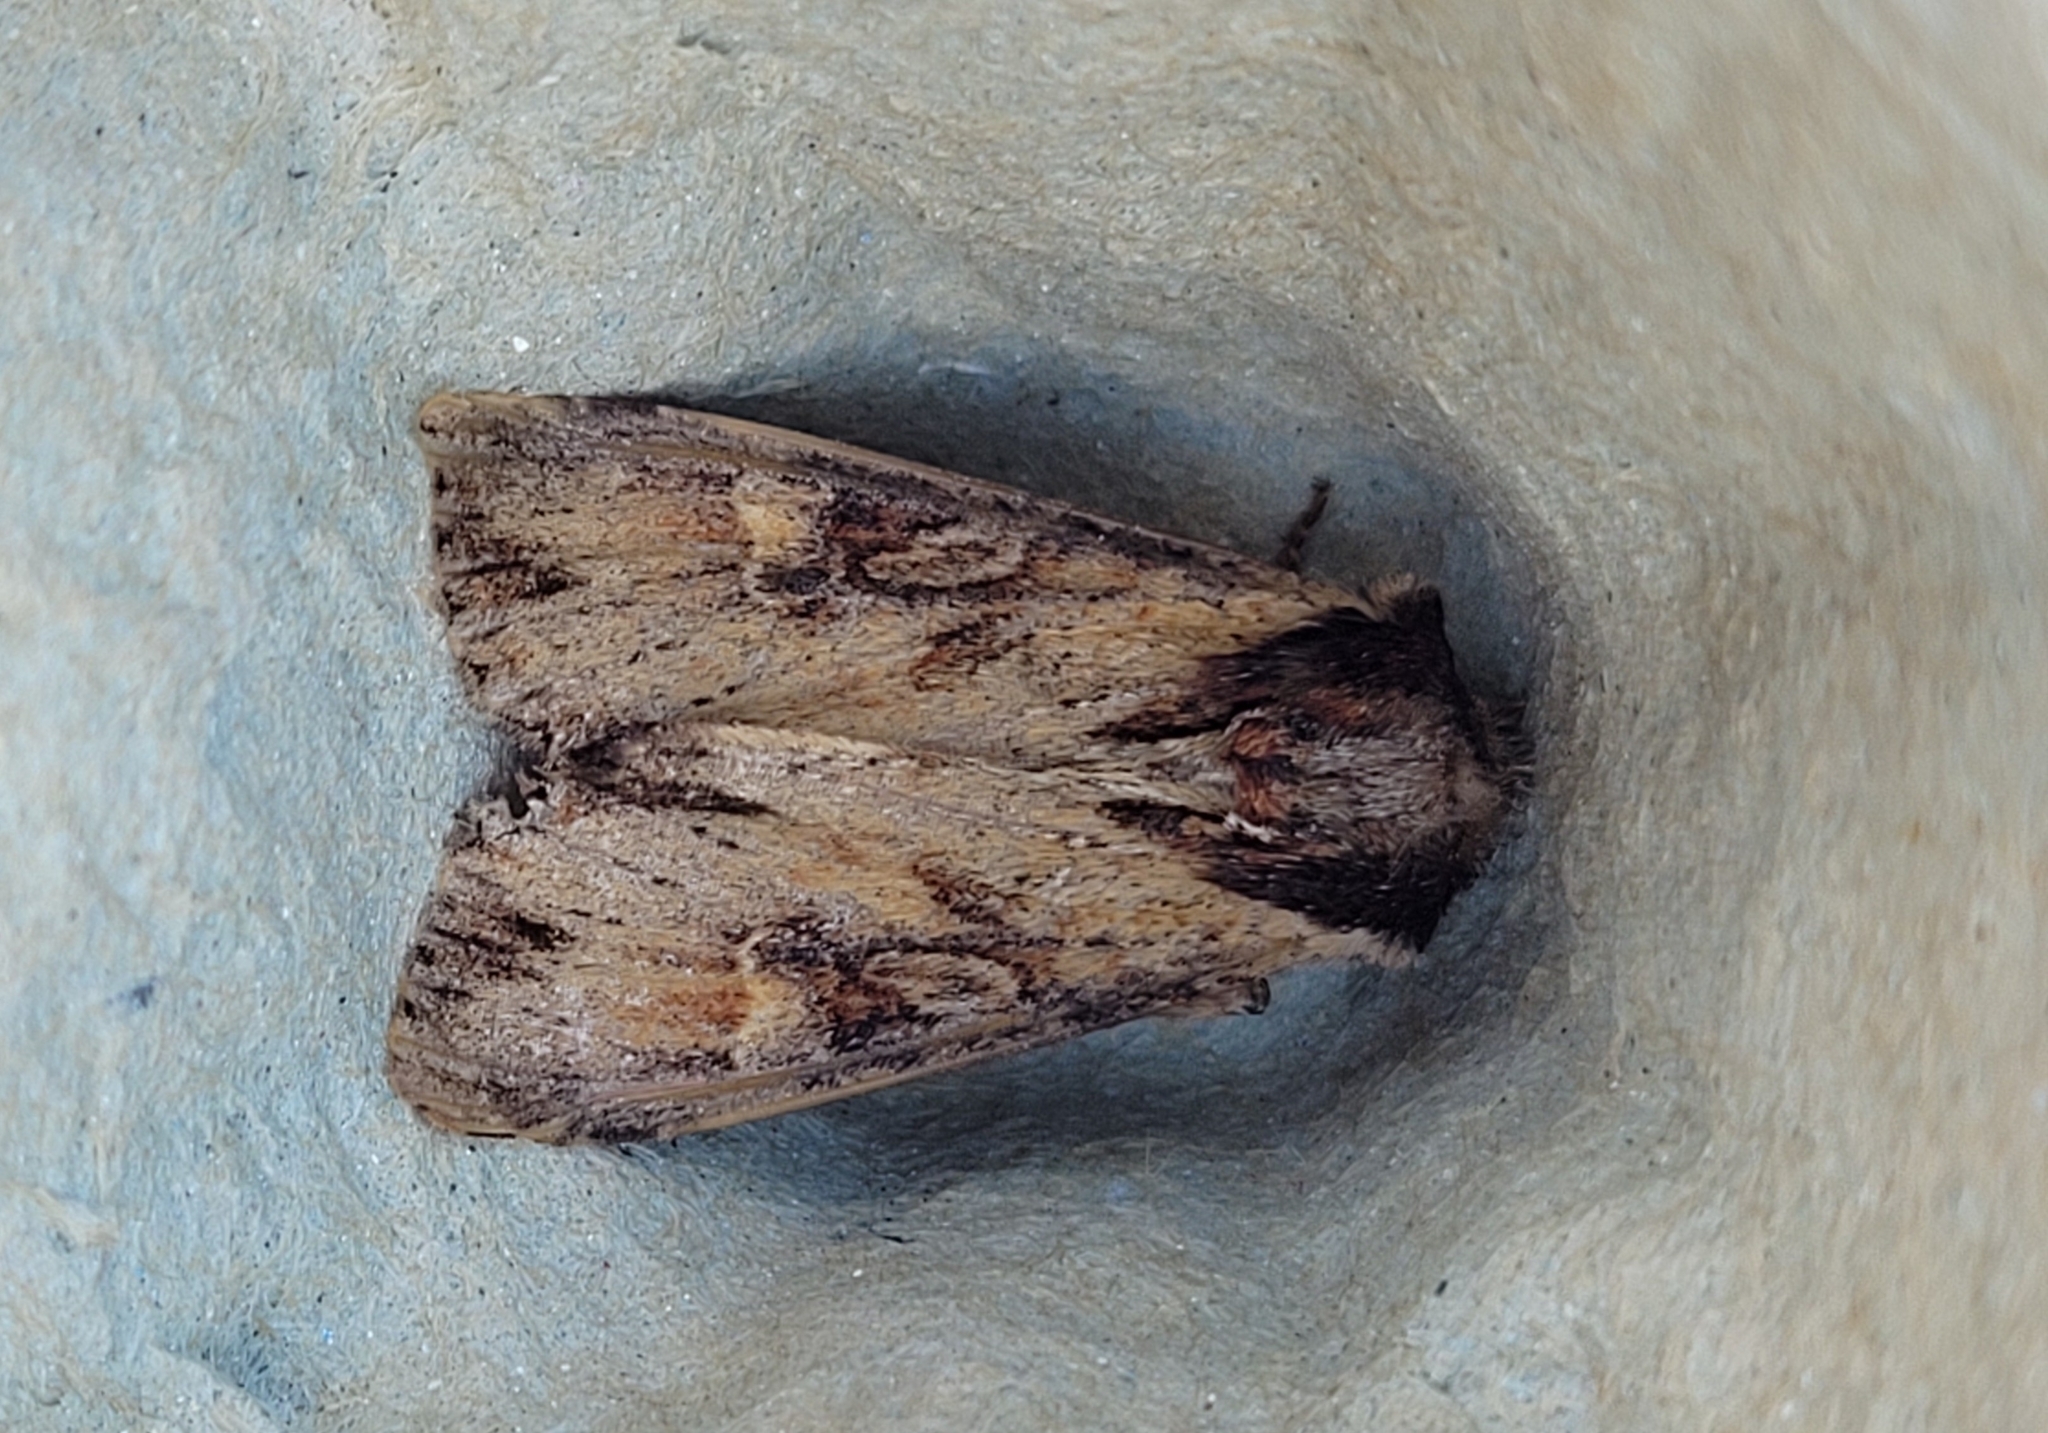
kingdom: Animalia
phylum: Arthropoda
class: Insecta
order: Lepidoptera
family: Noctuidae
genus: Apamea
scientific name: Apamea crenata
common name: Clouded-bordered brindle
